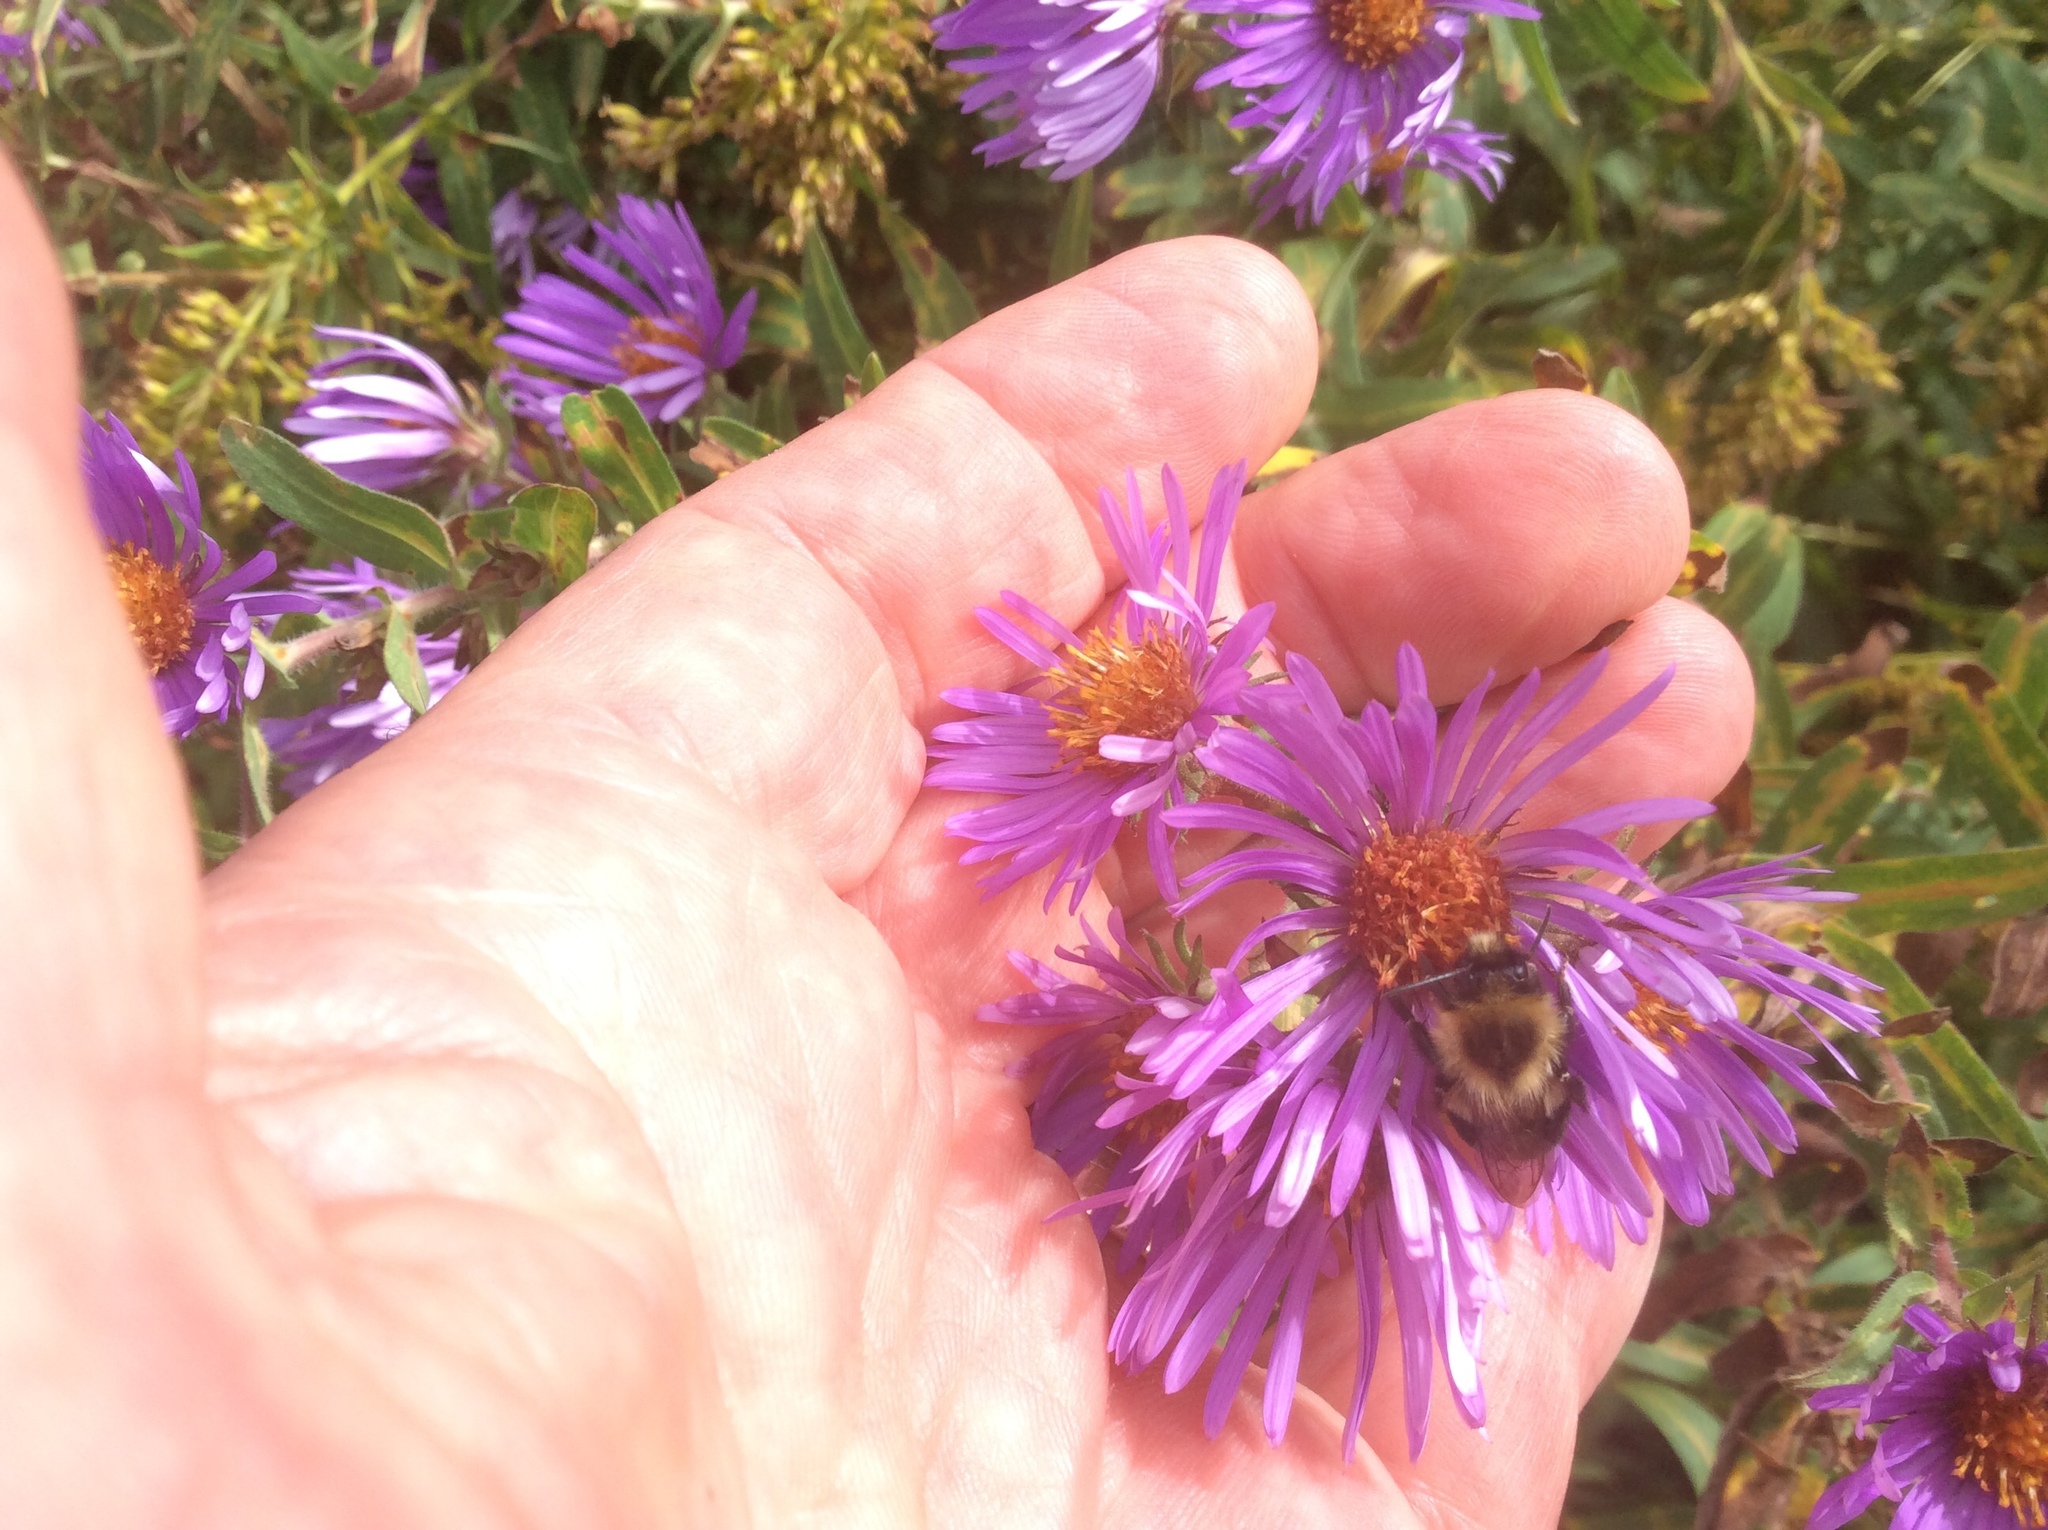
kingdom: Animalia
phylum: Arthropoda
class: Insecta
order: Hymenoptera
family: Apidae
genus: Bombus
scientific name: Bombus impatiens
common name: Common eastern bumble bee
